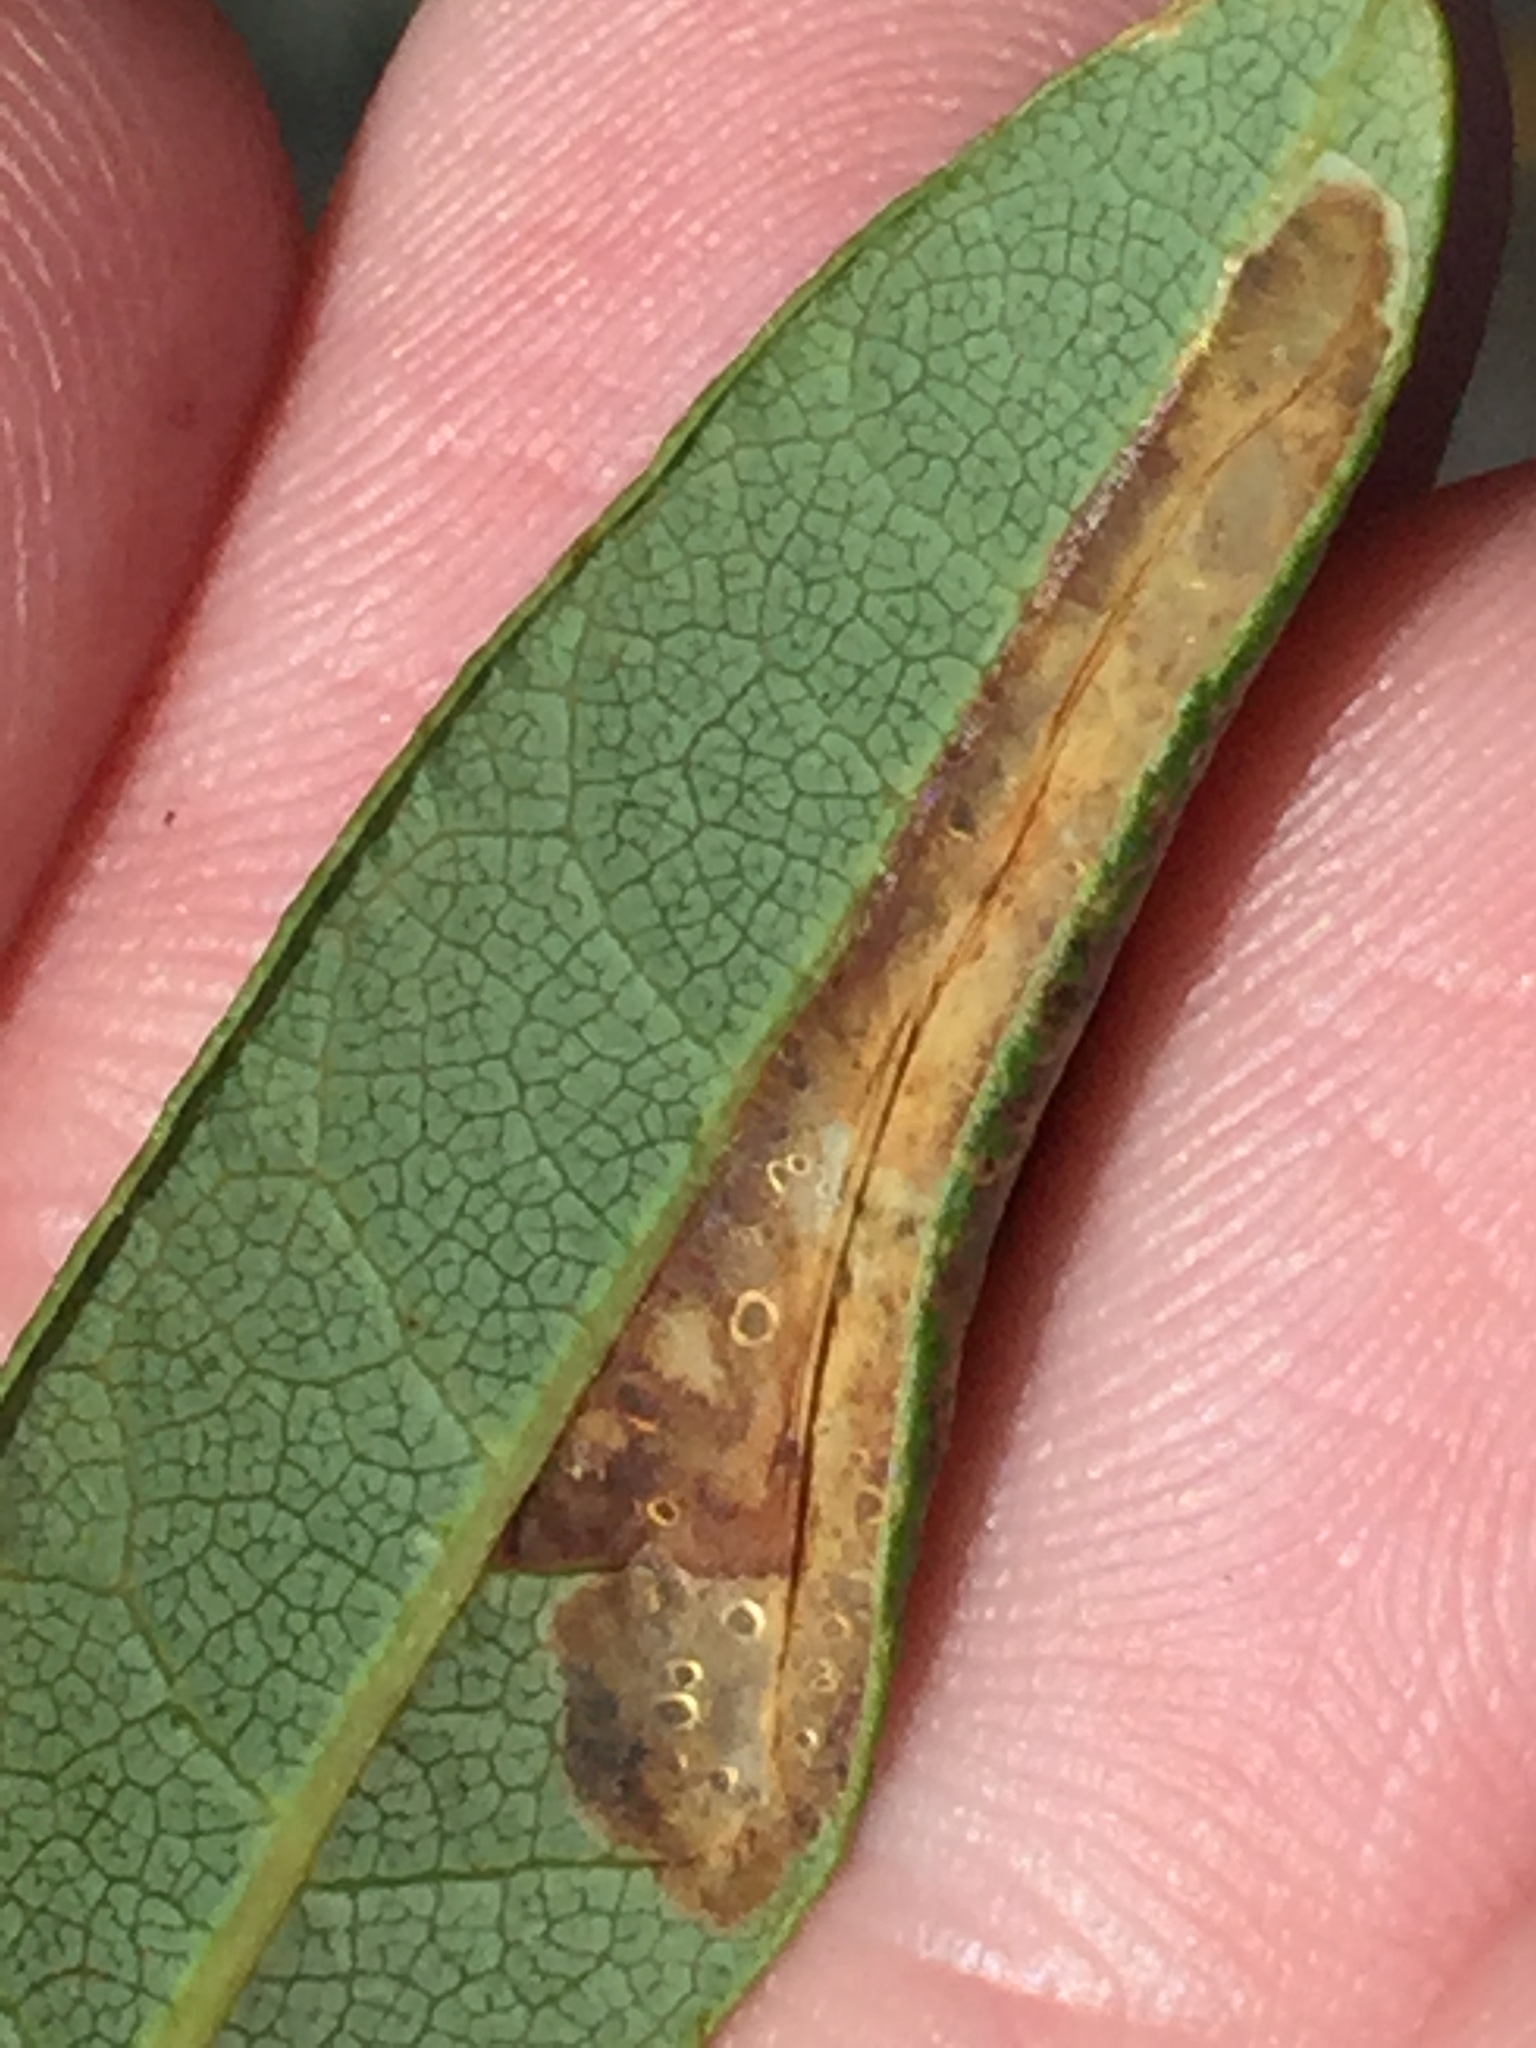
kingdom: Animalia
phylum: Arthropoda
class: Insecta
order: Lepidoptera
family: Gracillariidae
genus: Porphyrosela
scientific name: Porphyrosela hardenbergiella
